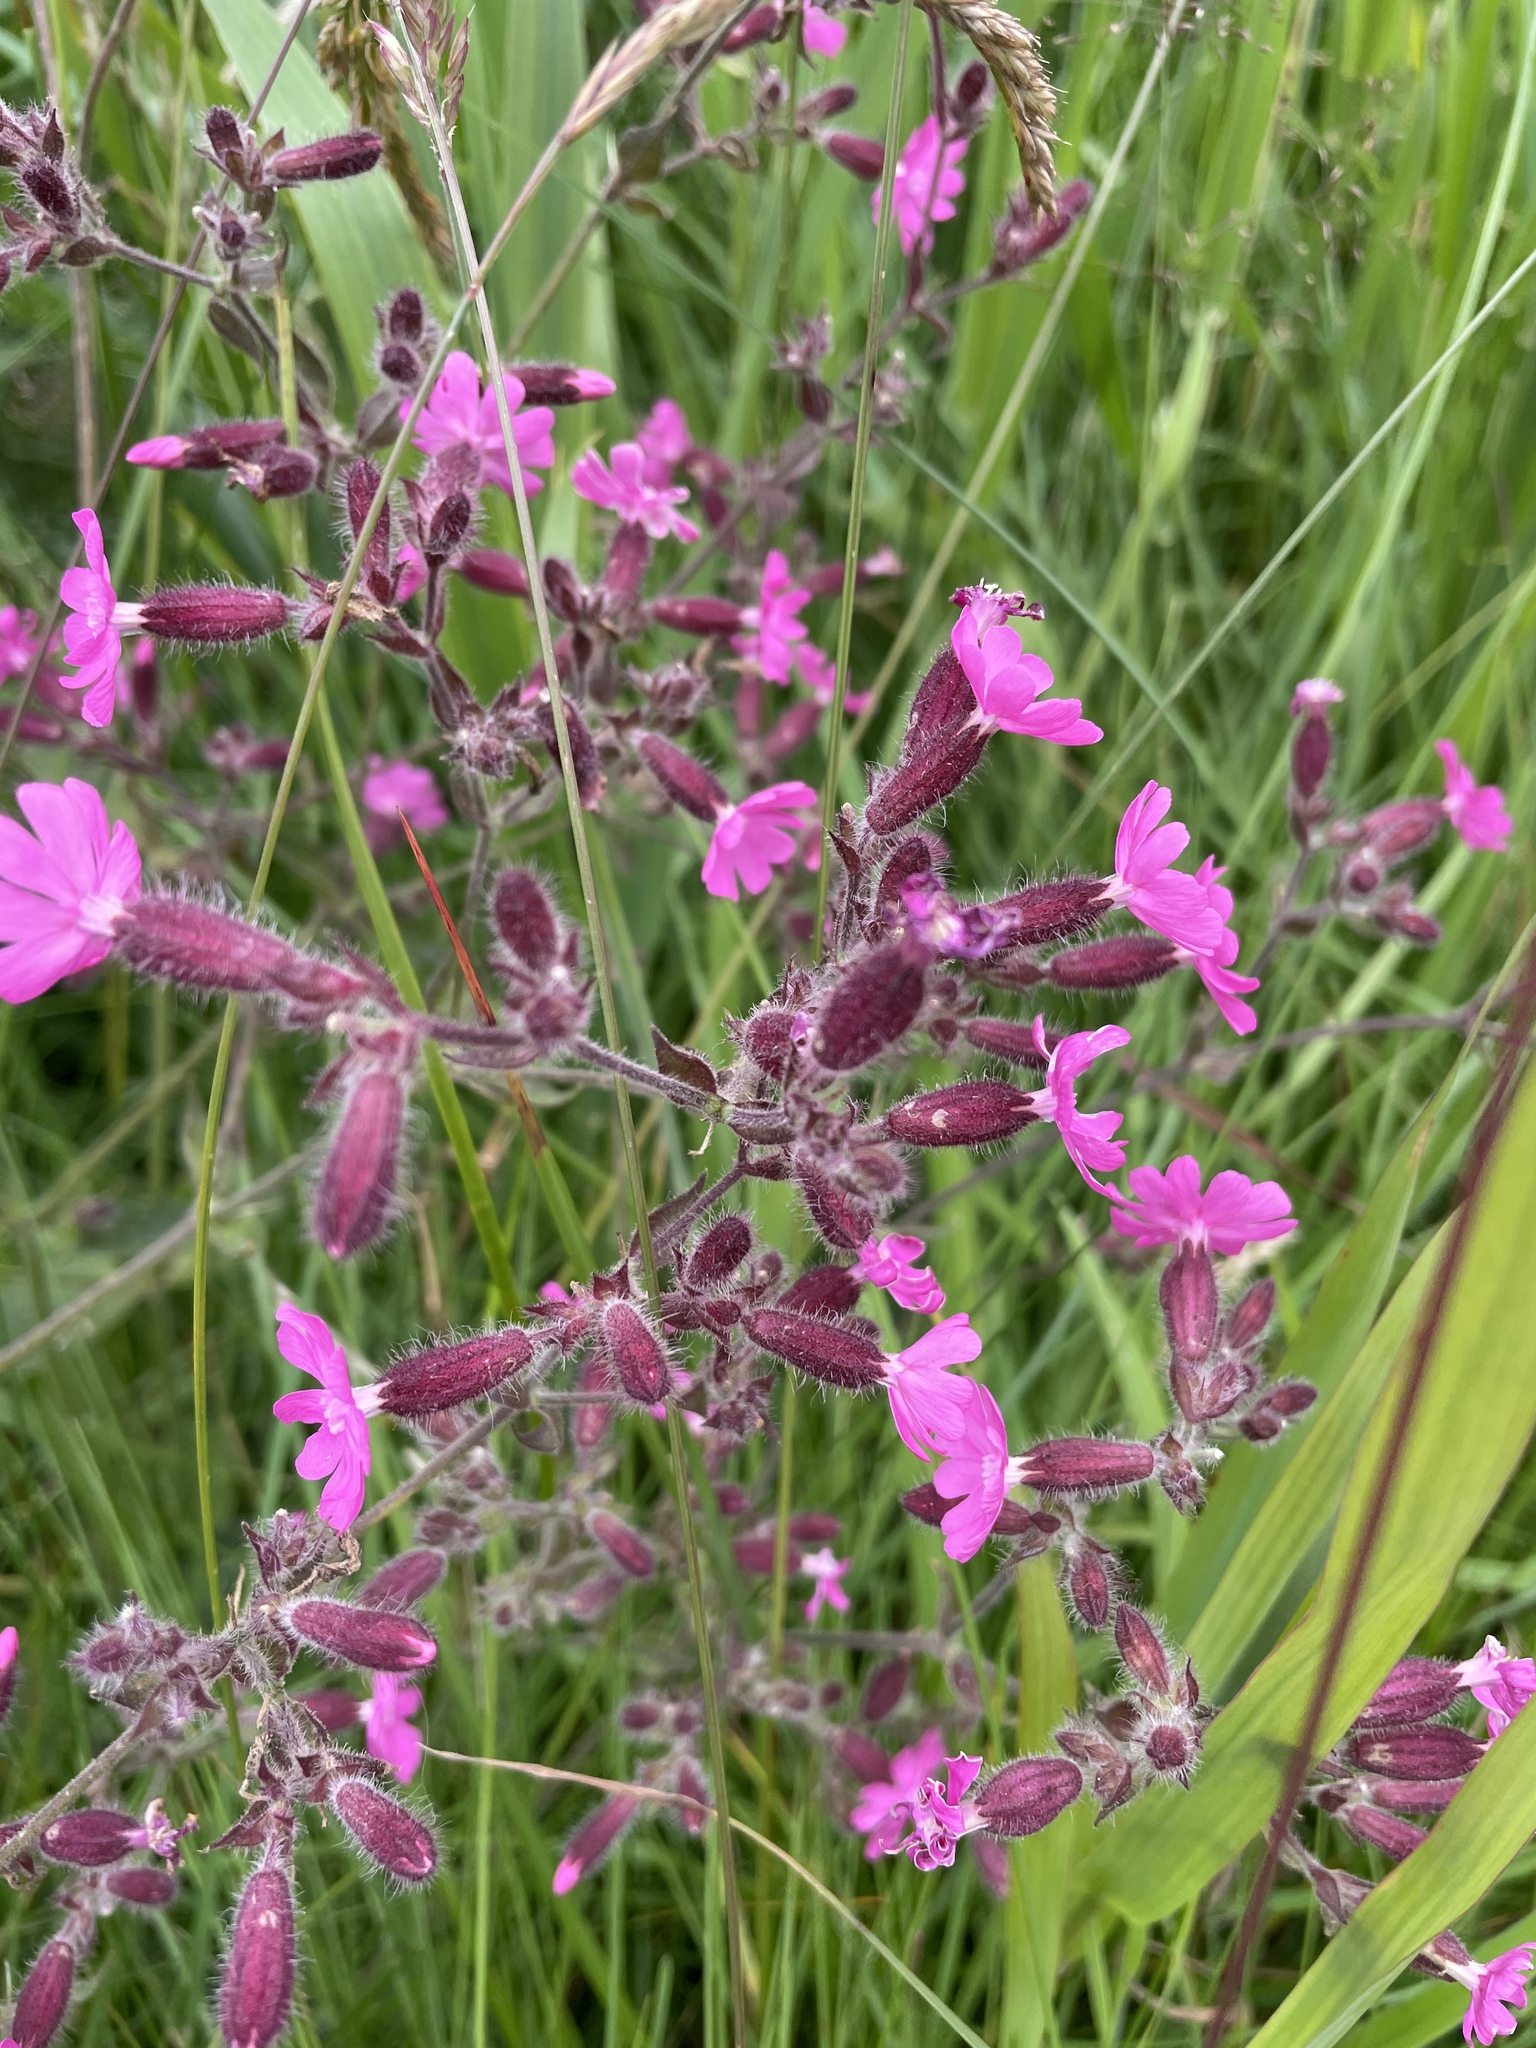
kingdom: Plantae
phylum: Tracheophyta
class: Magnoliopsida
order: Caryophyllales
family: Caryophyllaceae
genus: Silene
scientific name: Silene dioica
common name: Red campion
